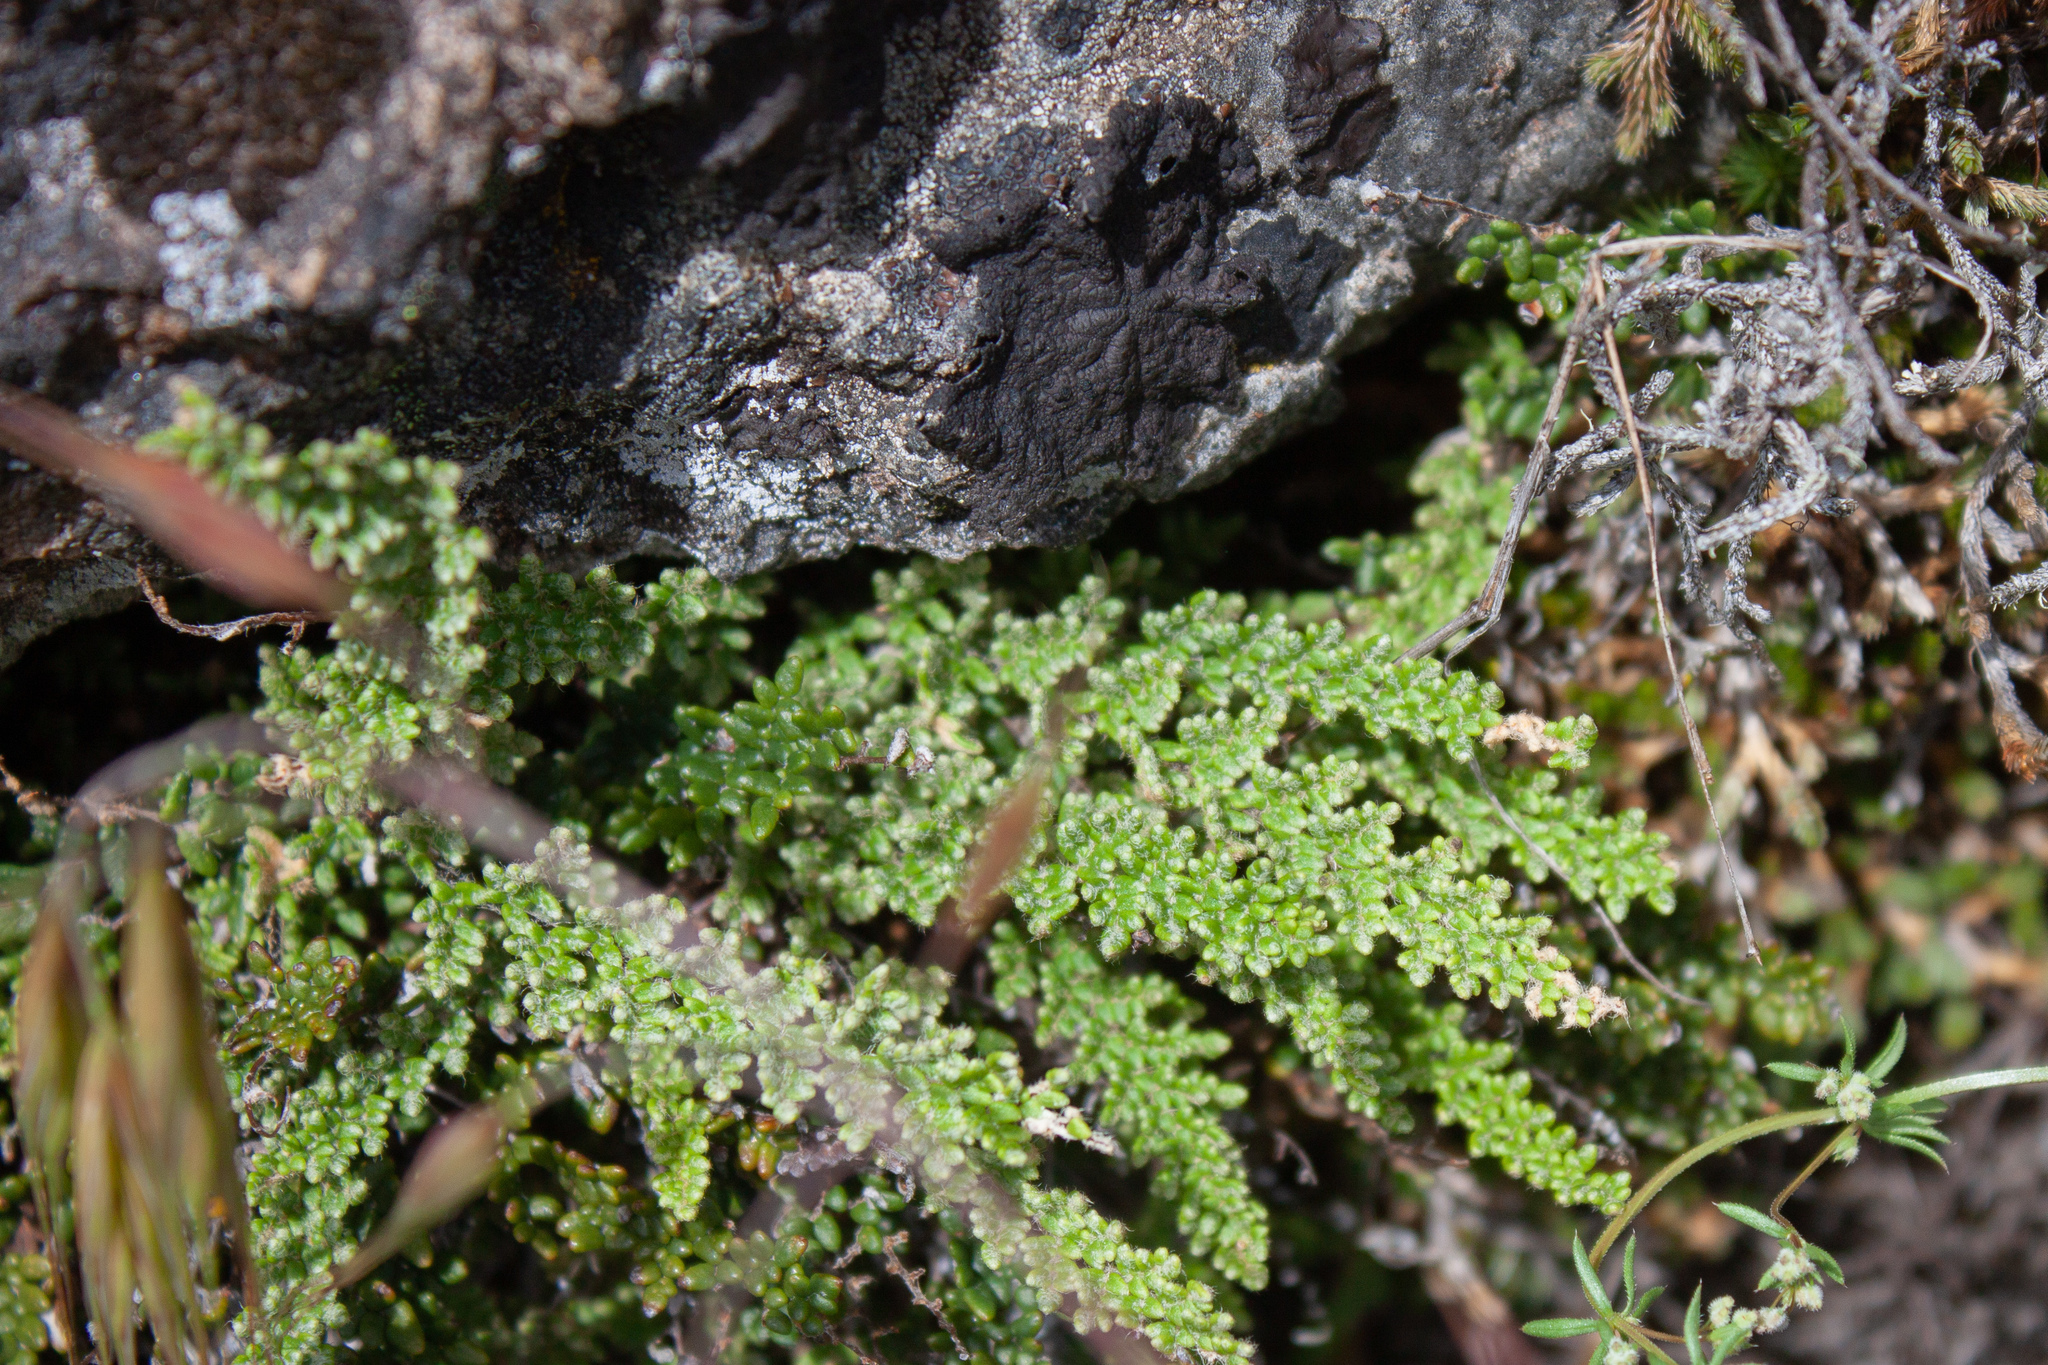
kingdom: Plantae
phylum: Tracheophyta
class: Polypodiopsida
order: Polypodiales
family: Pteridaceae
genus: Myriopteris
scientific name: Myriopteris gracillima
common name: Lace fern
